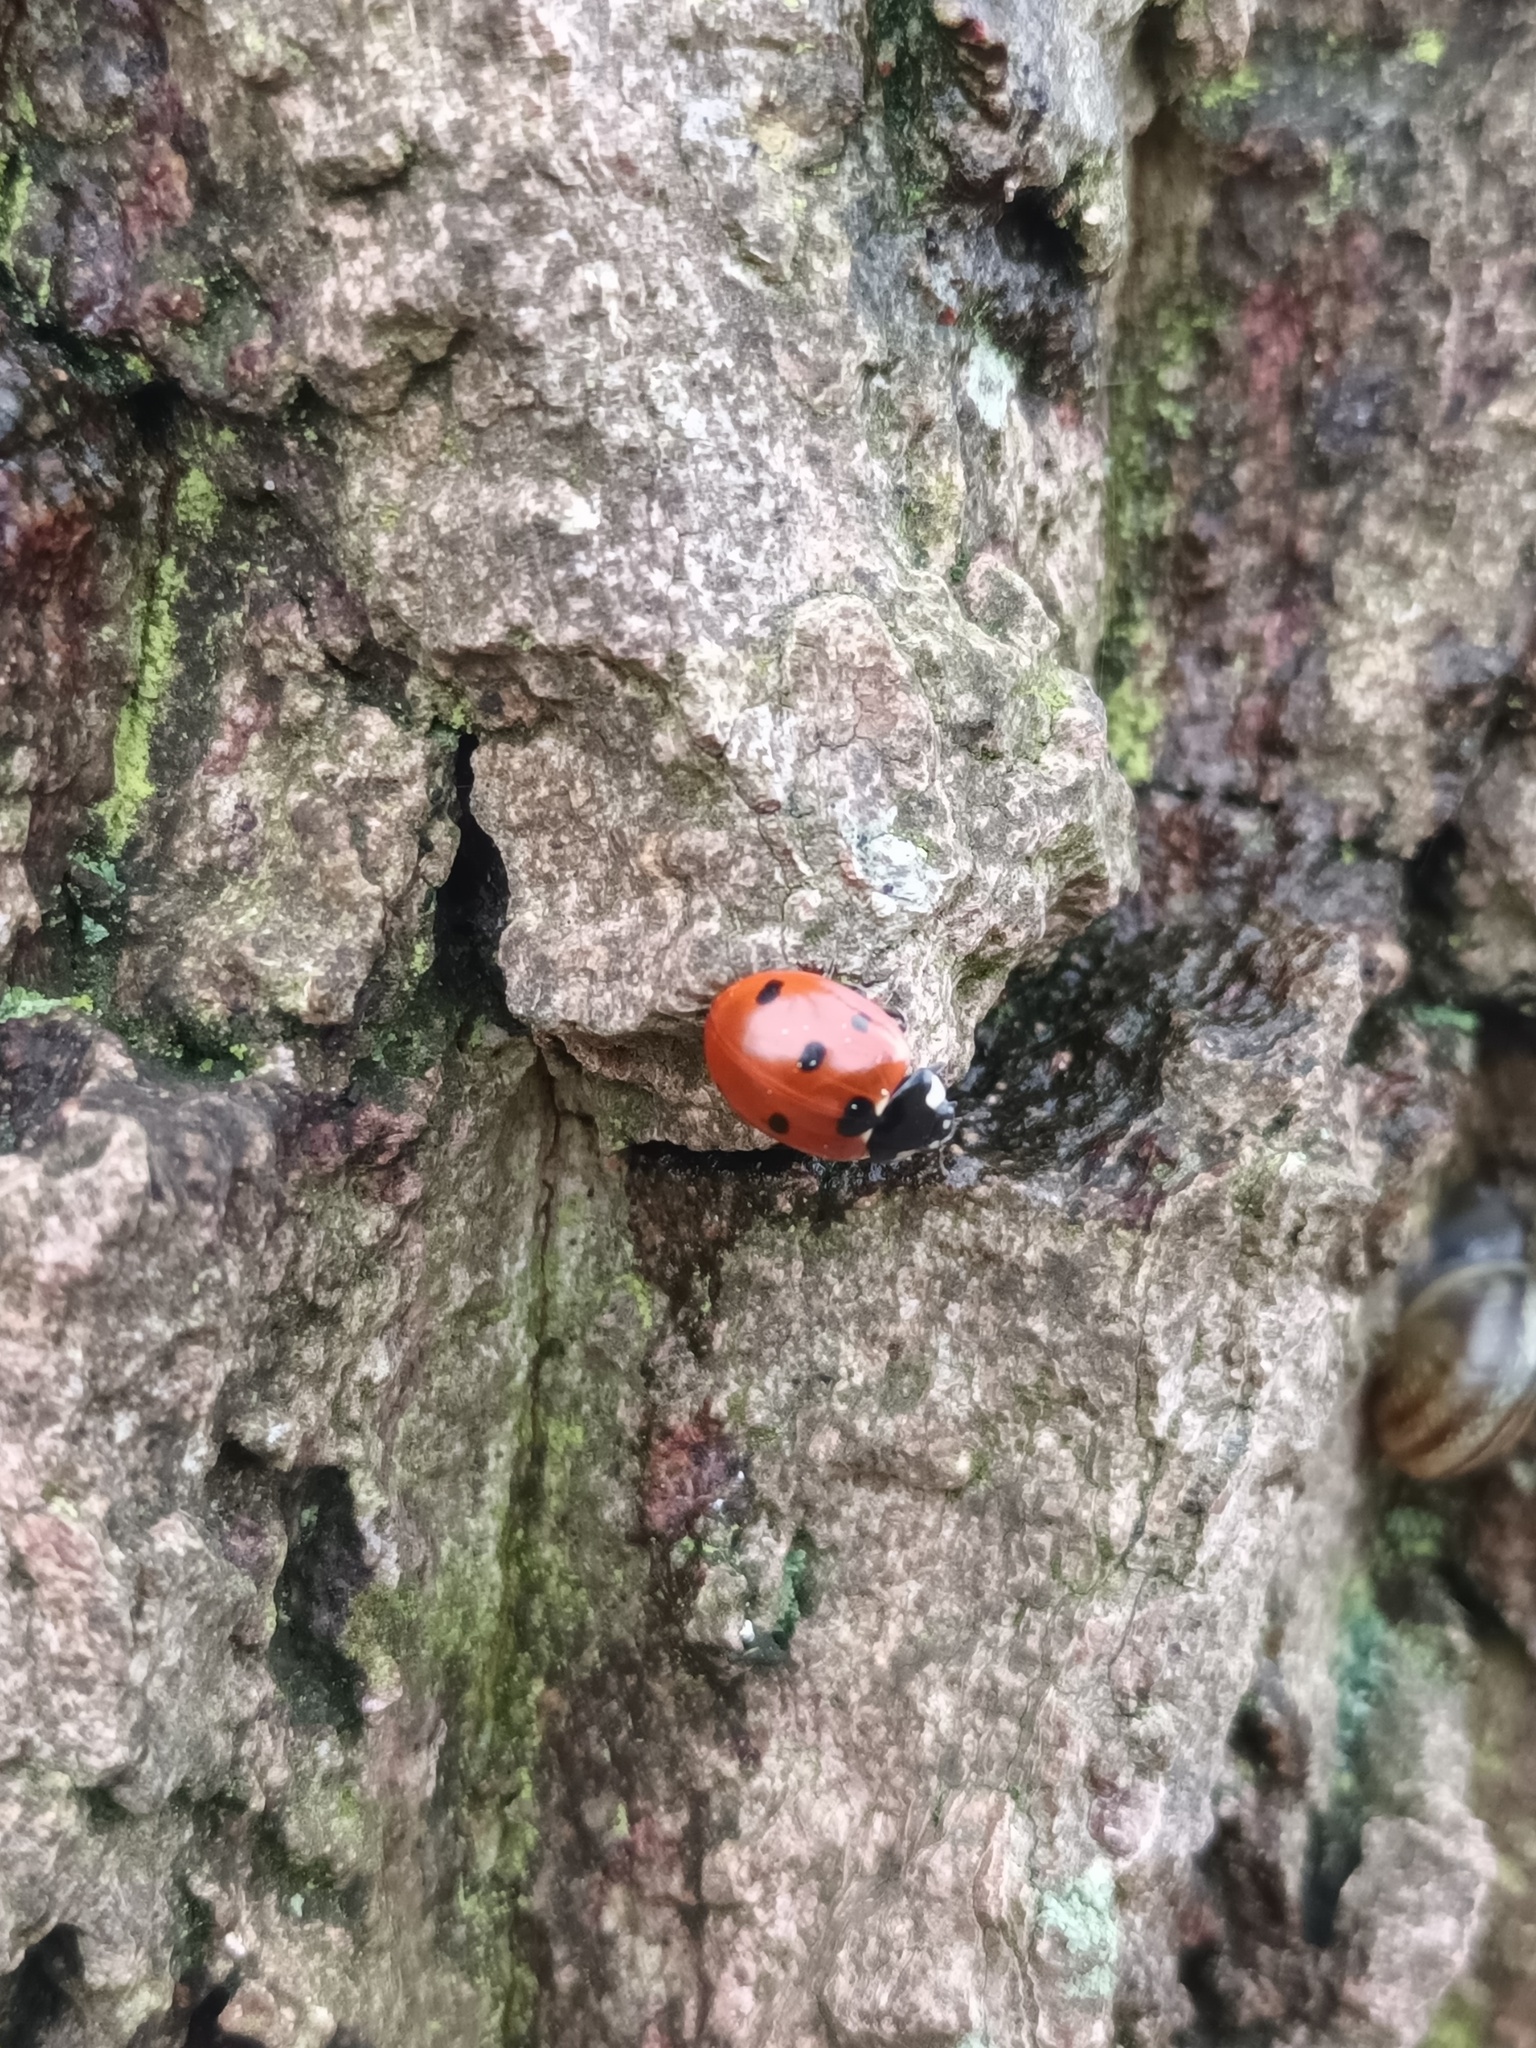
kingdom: Animalia
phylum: Arthropoda
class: Insecta
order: Coleoptera
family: Coccinellidae
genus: Coccinella
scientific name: Coccinella septempunctata
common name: Sevenspotted lady beetle
